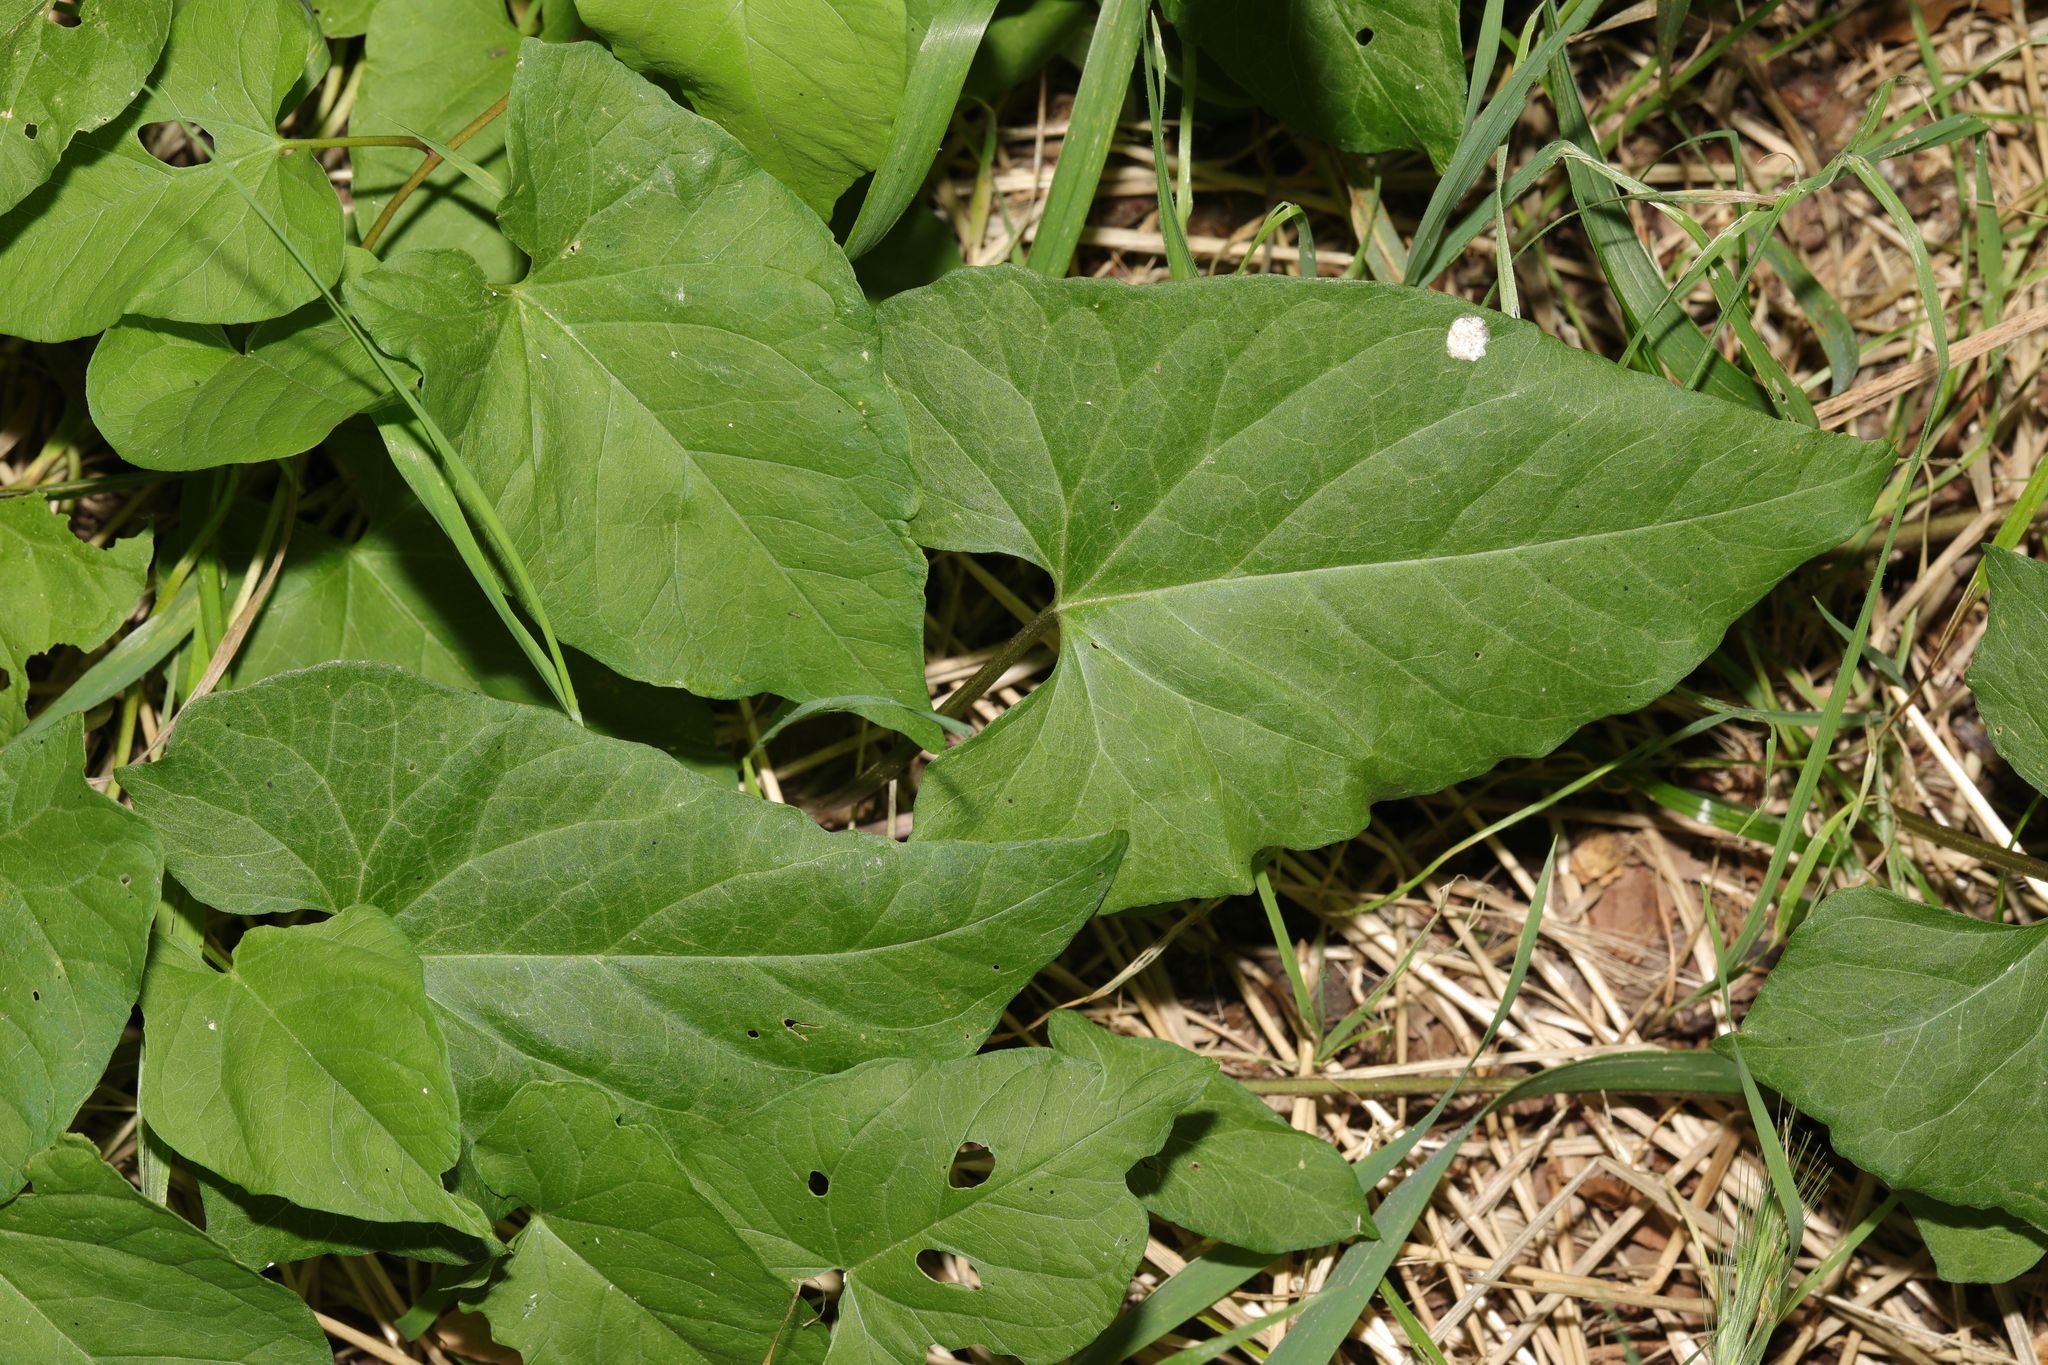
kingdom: Plantae
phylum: Tracheophyta
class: Magnoliopsida
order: Solanales
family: Convolvulaceae
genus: Calystegia
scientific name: Calystegia silvatica
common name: Large bindweed
